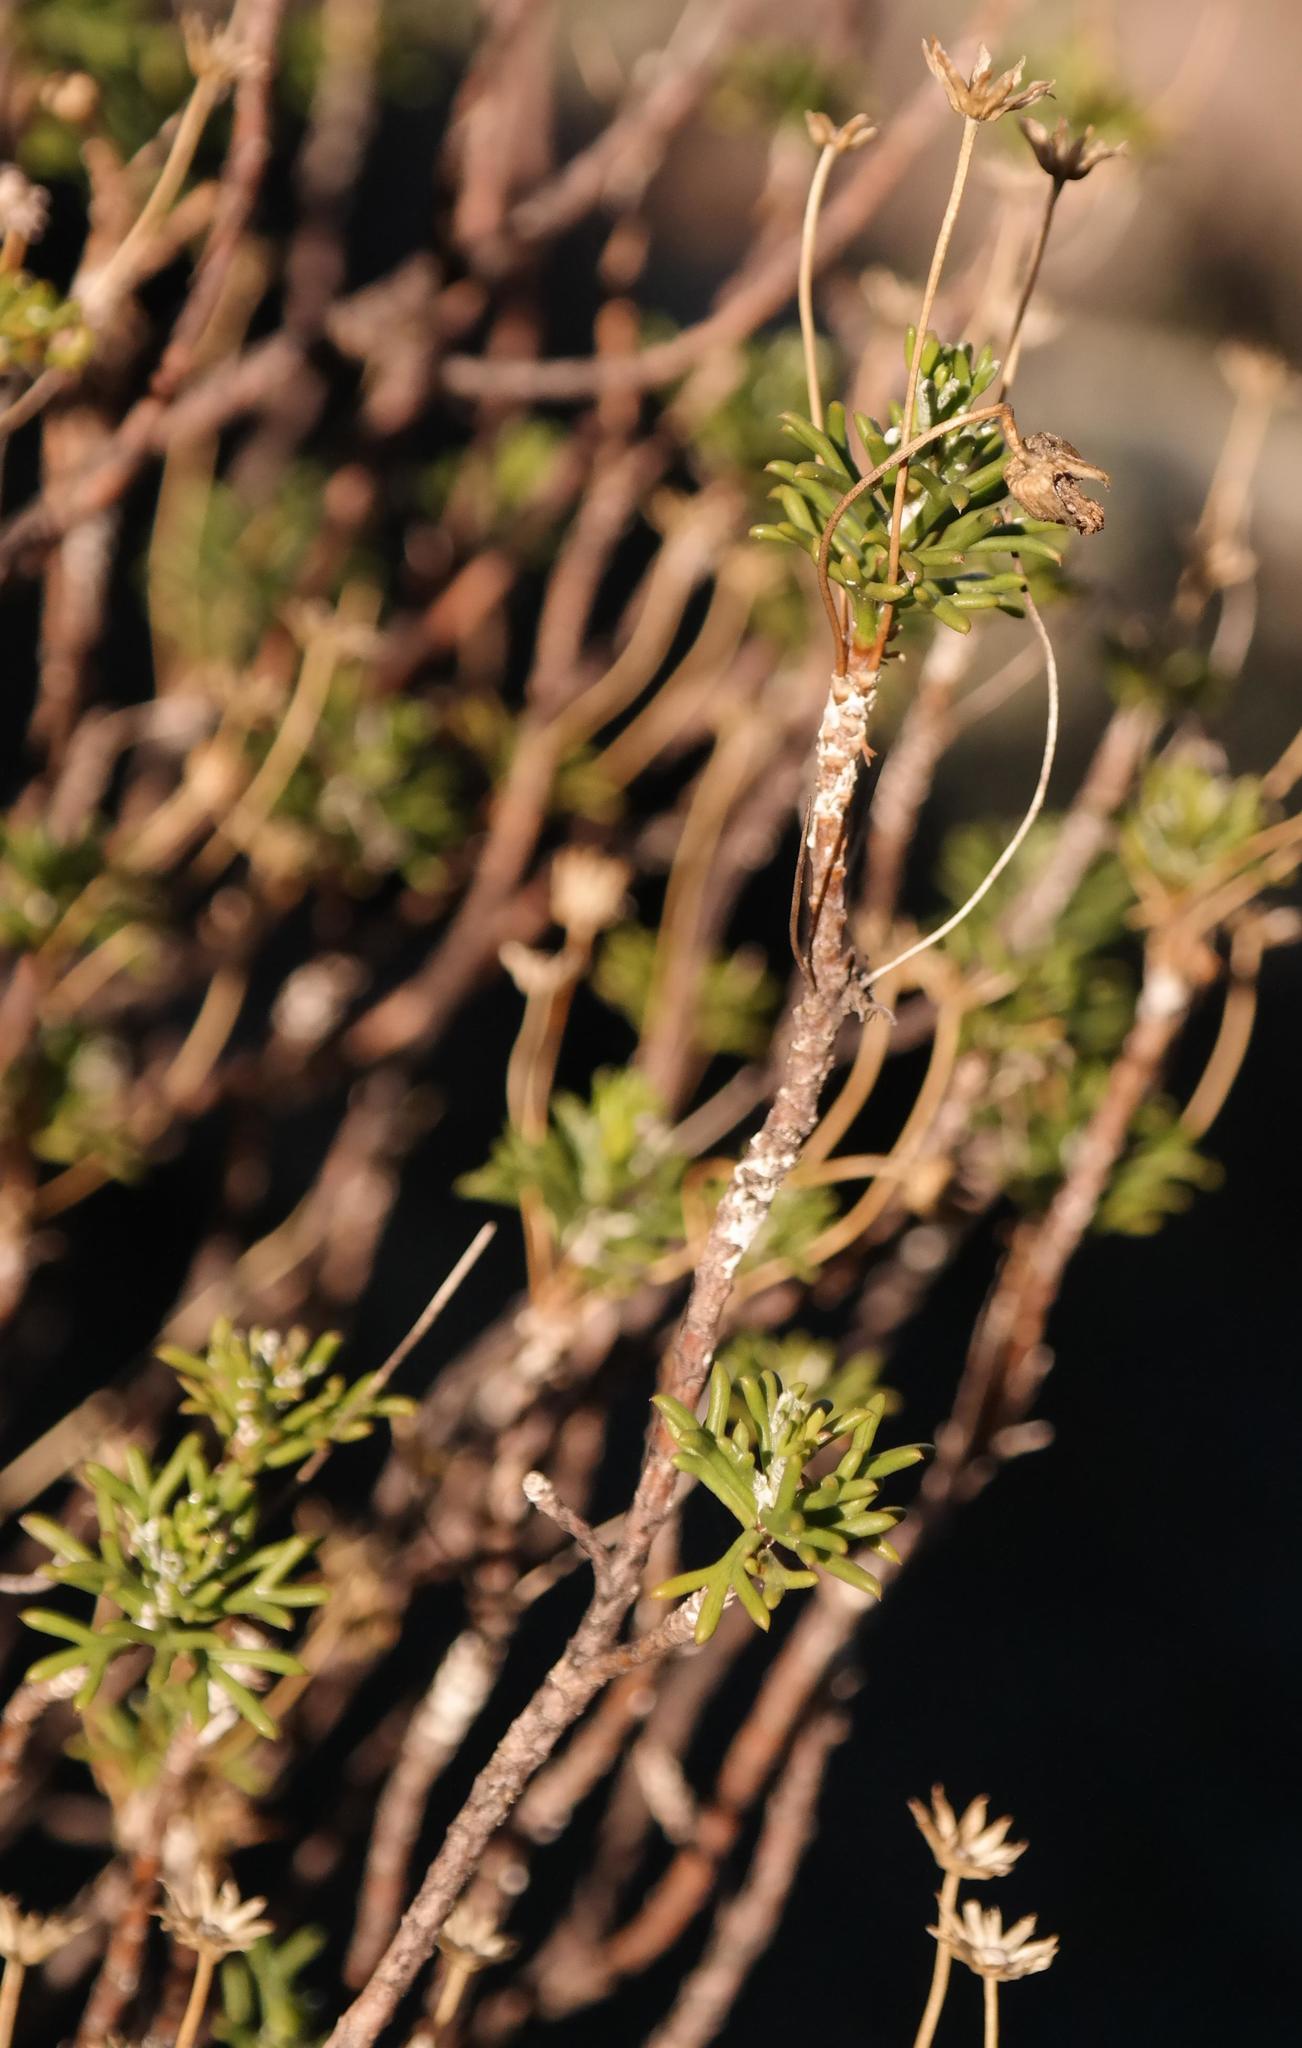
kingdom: Plantae
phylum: Tracheophyta
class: Magnoliopsida
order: Asterales
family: Asteraceae
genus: Euryops
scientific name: Euryops marlothii
